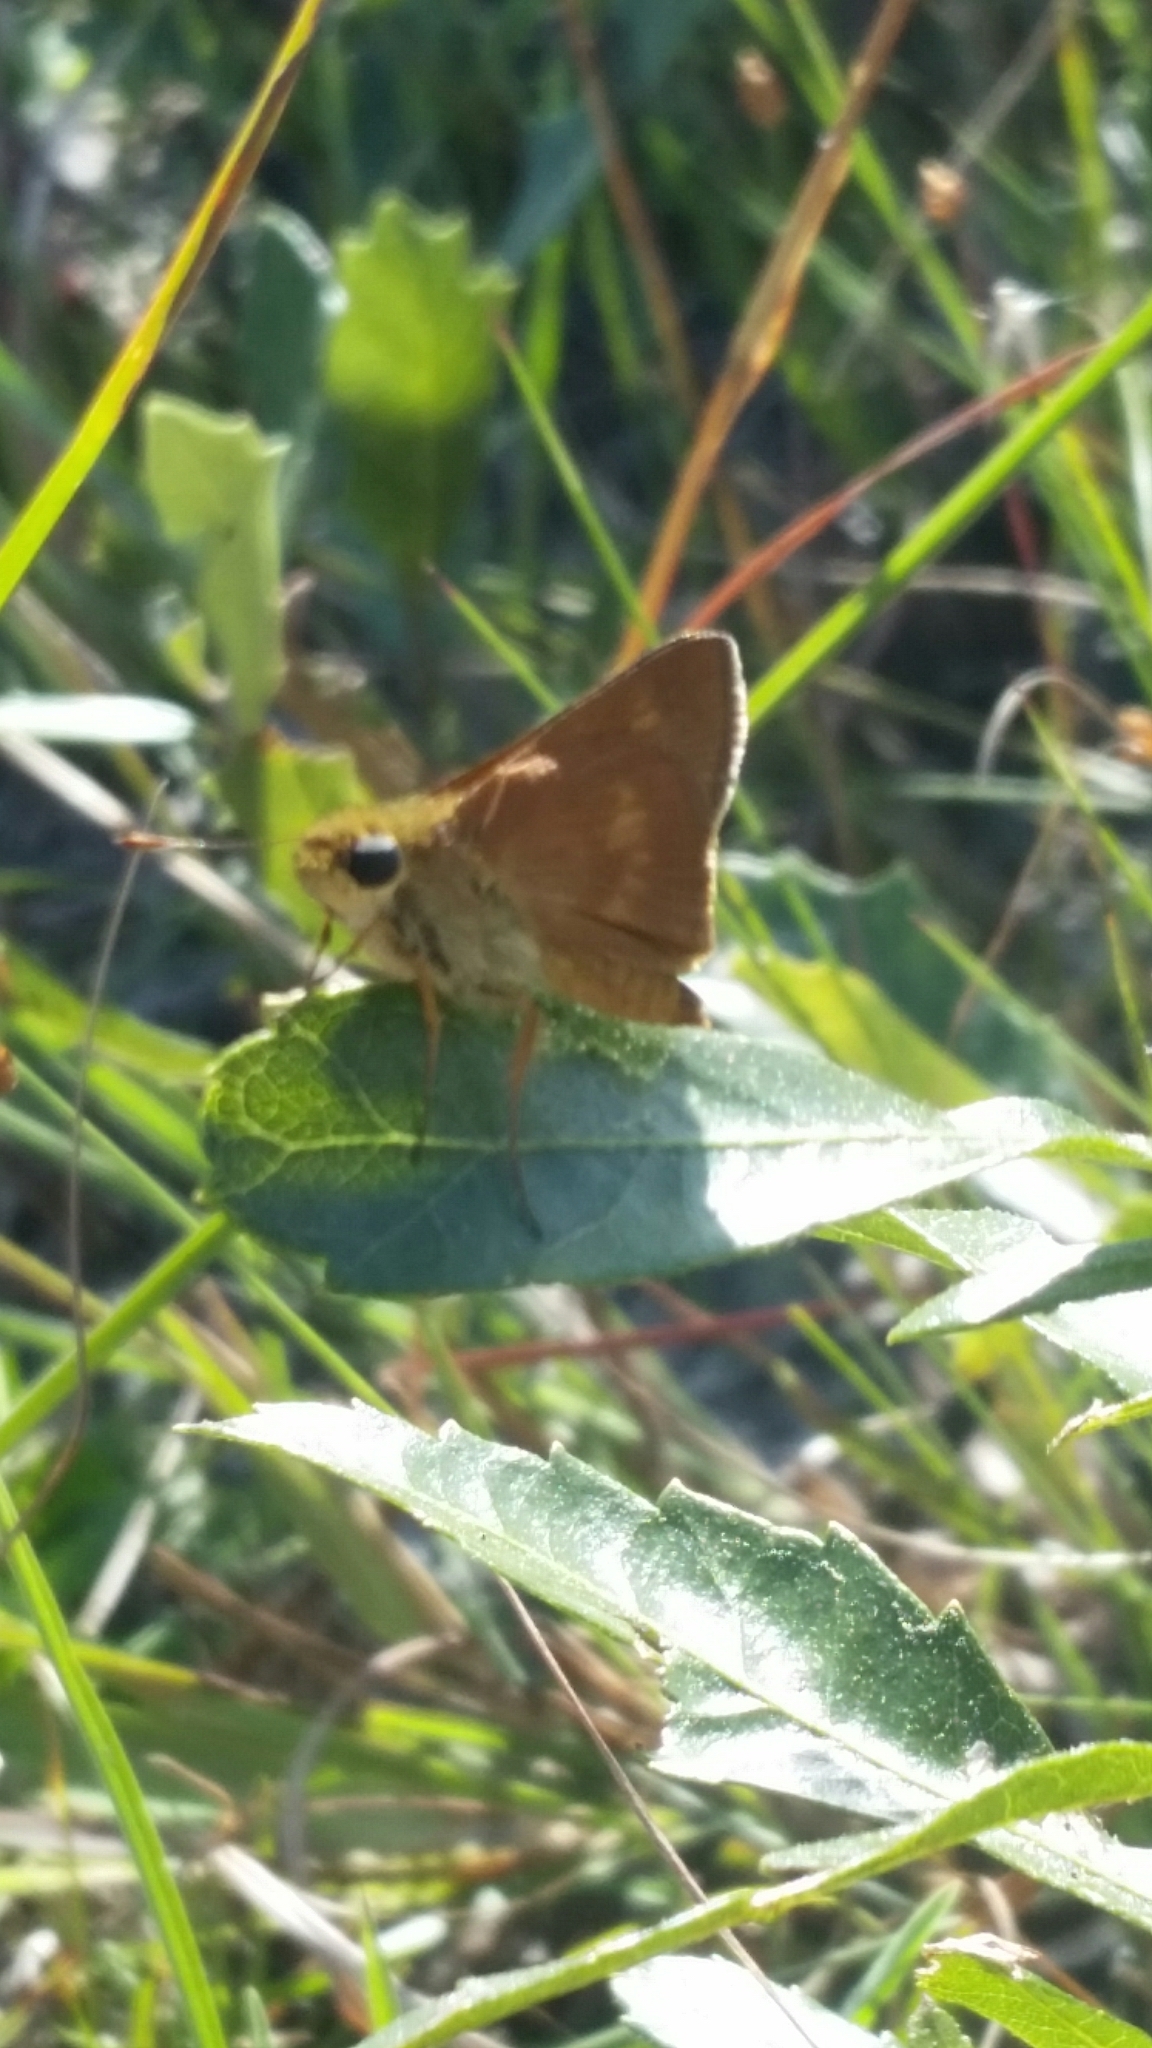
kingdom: Animalia
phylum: Arthropoda
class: Insecta
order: Lepidoptera
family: Hesperiidae
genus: Polites
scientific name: Polites otho
